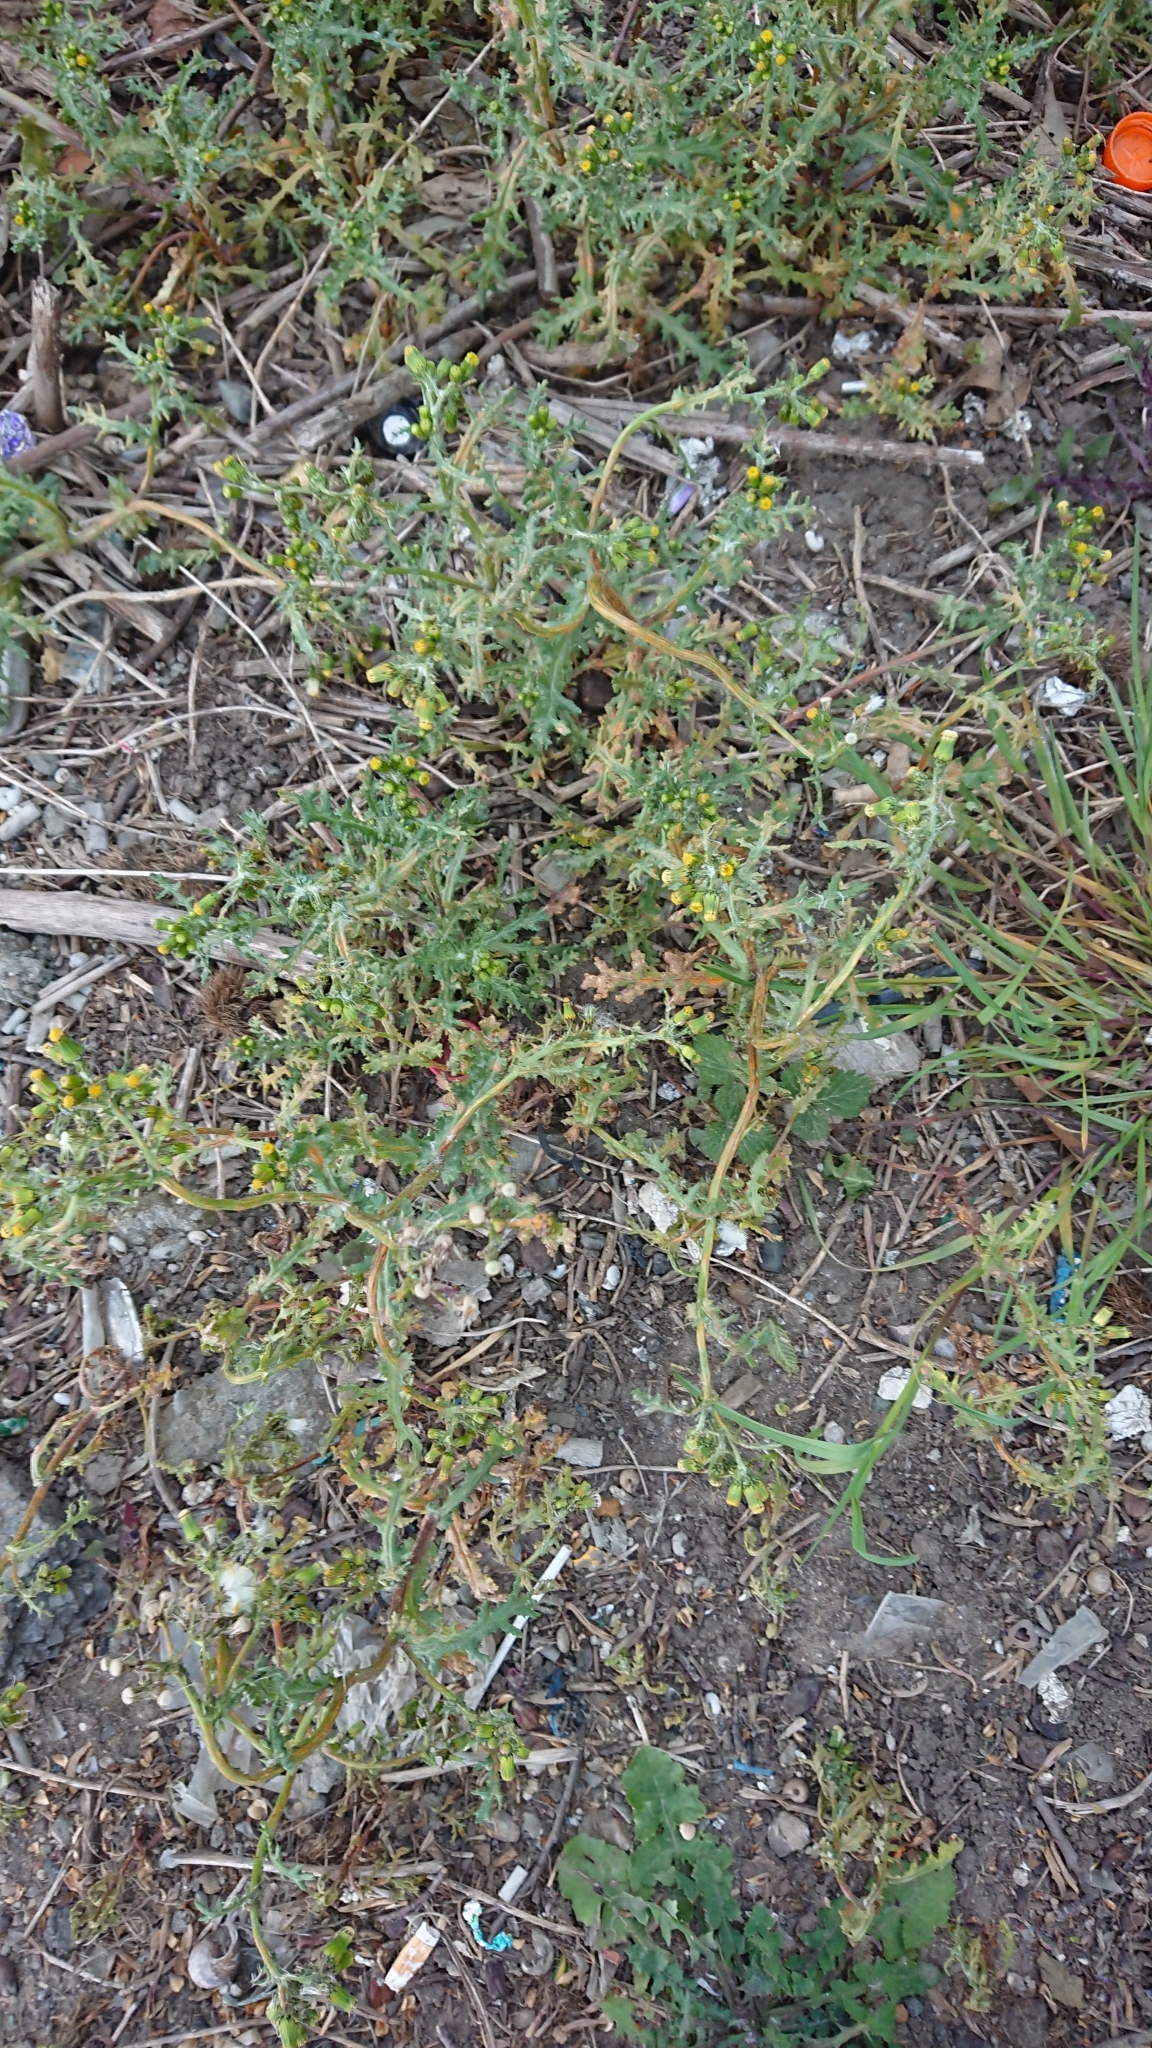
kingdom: Plantae
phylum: Tracheophyta
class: Magnoliopsida
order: Asterales
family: Asteraceae
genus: Senecio
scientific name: Senecio vulgaris
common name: Old-man-in-the-spring
